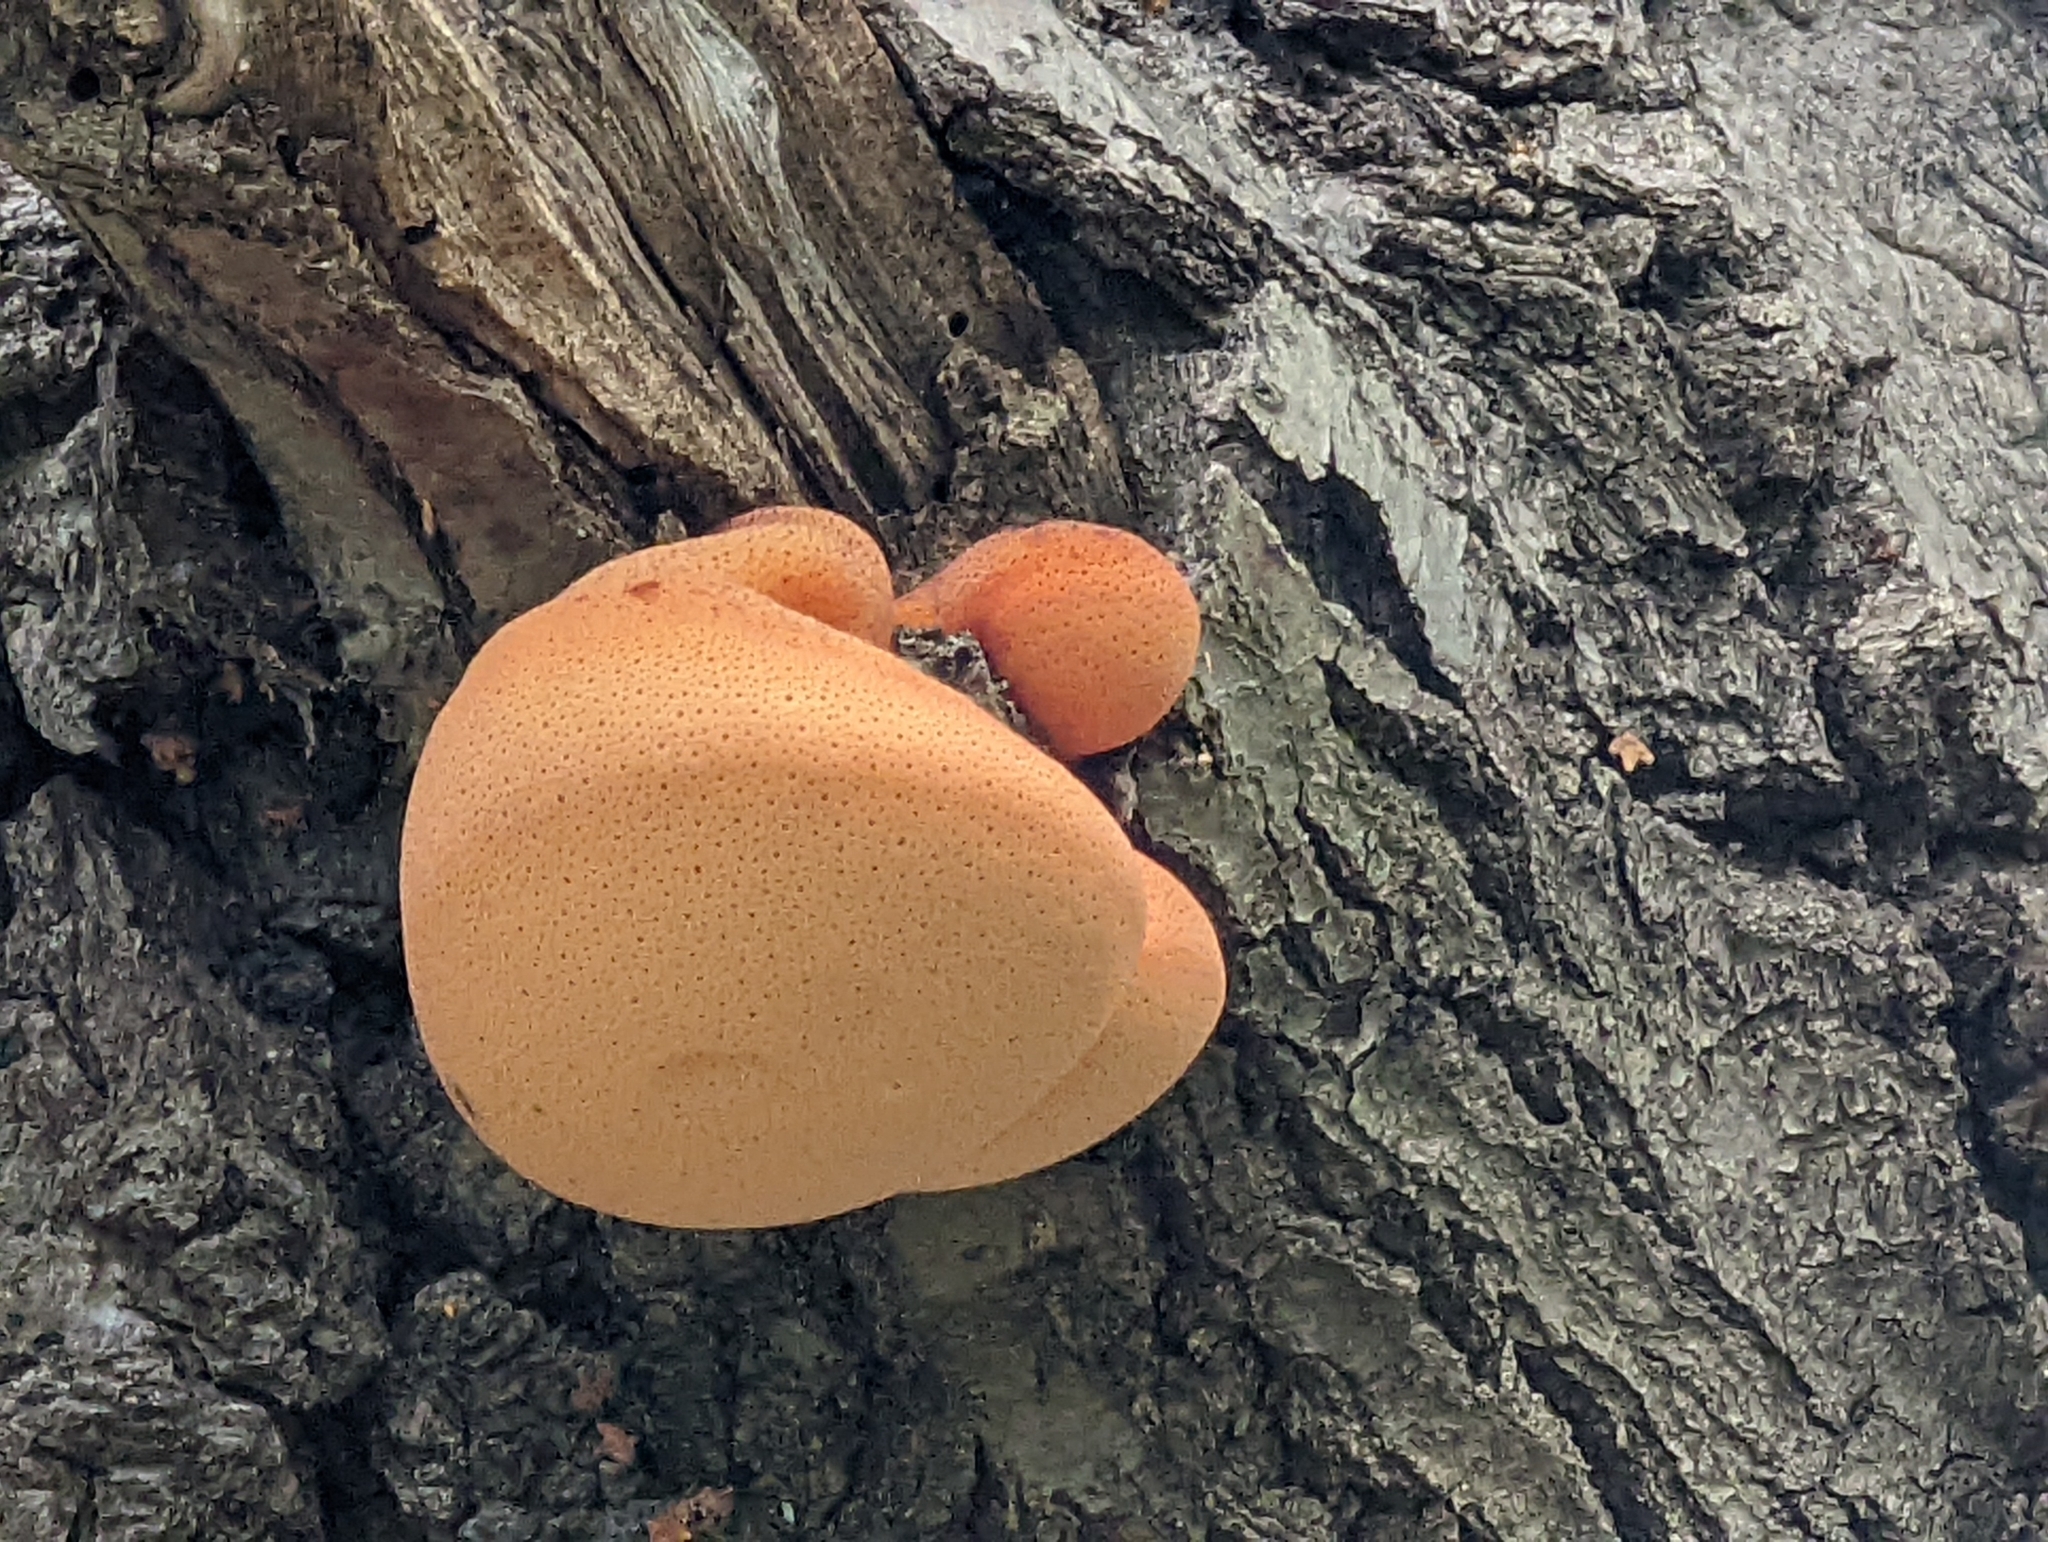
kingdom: Fungi
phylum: Basidiomycota
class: Agaricomycetes
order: Agaricales
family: Fistulinaceae
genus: Fistulina
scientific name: Fistulina hepatica
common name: Beef-steak fungus
